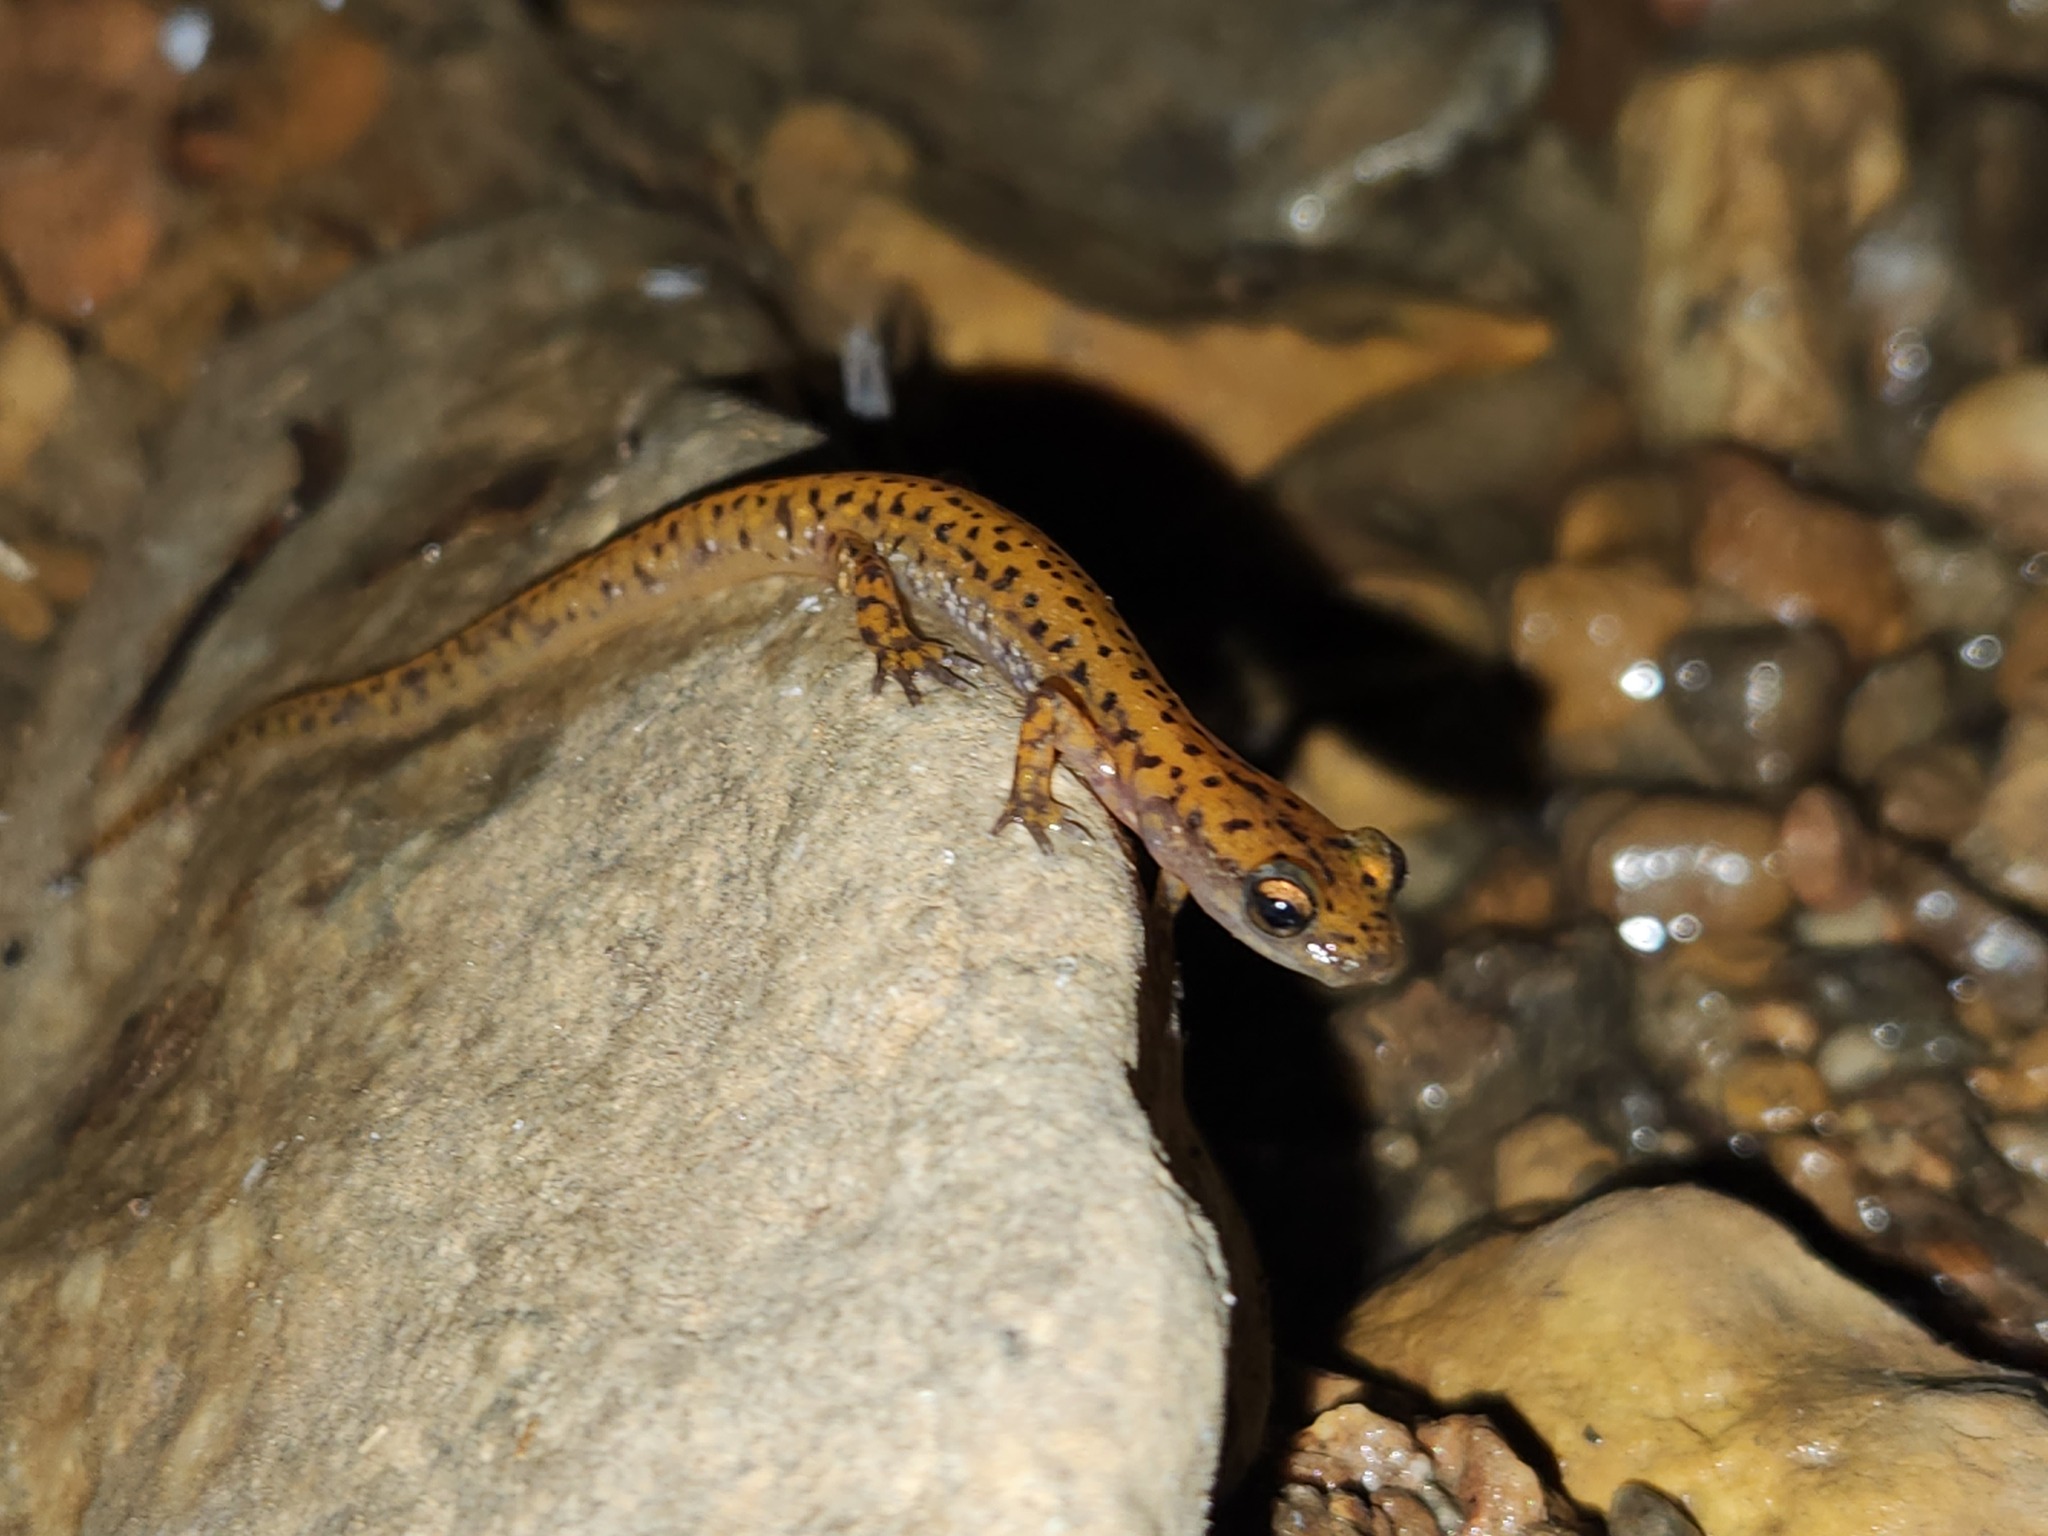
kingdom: Animalia
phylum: Chordata
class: Amphibia
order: Caudata
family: Plethodontidae
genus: Eurycea
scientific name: Eurycea lucifuga
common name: Cave salamander
